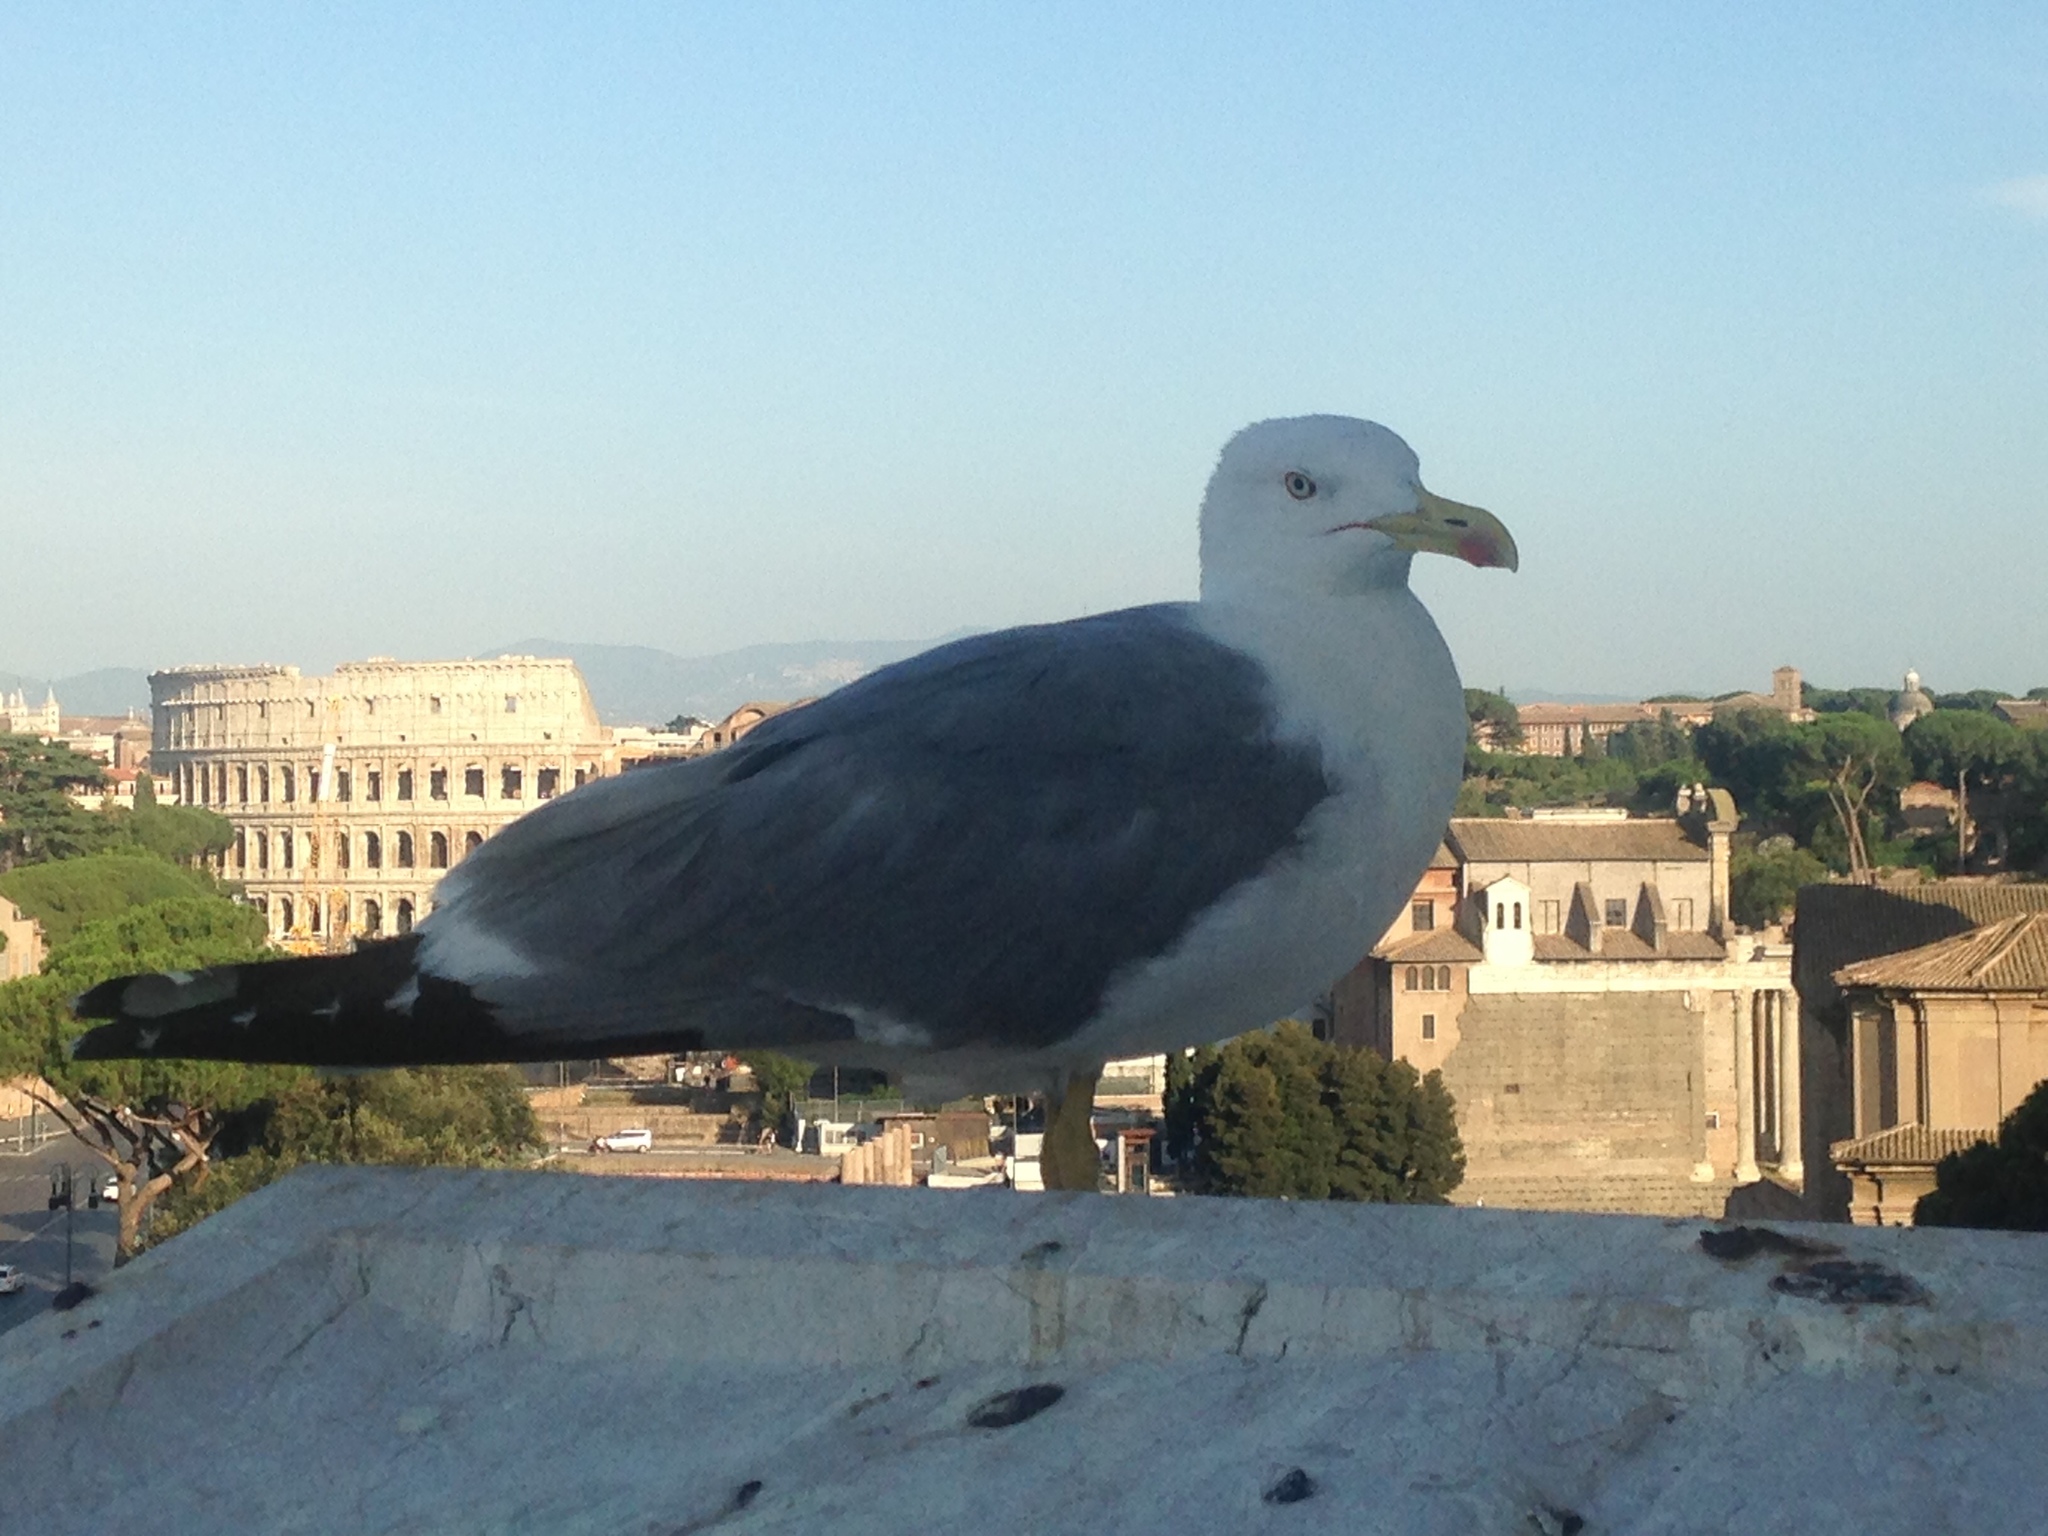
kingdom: Animalia
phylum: Chordata
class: Aves
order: Charadriiformes
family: Laridae
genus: Larus
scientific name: Larus michahellis
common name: Yellow-legged gull
